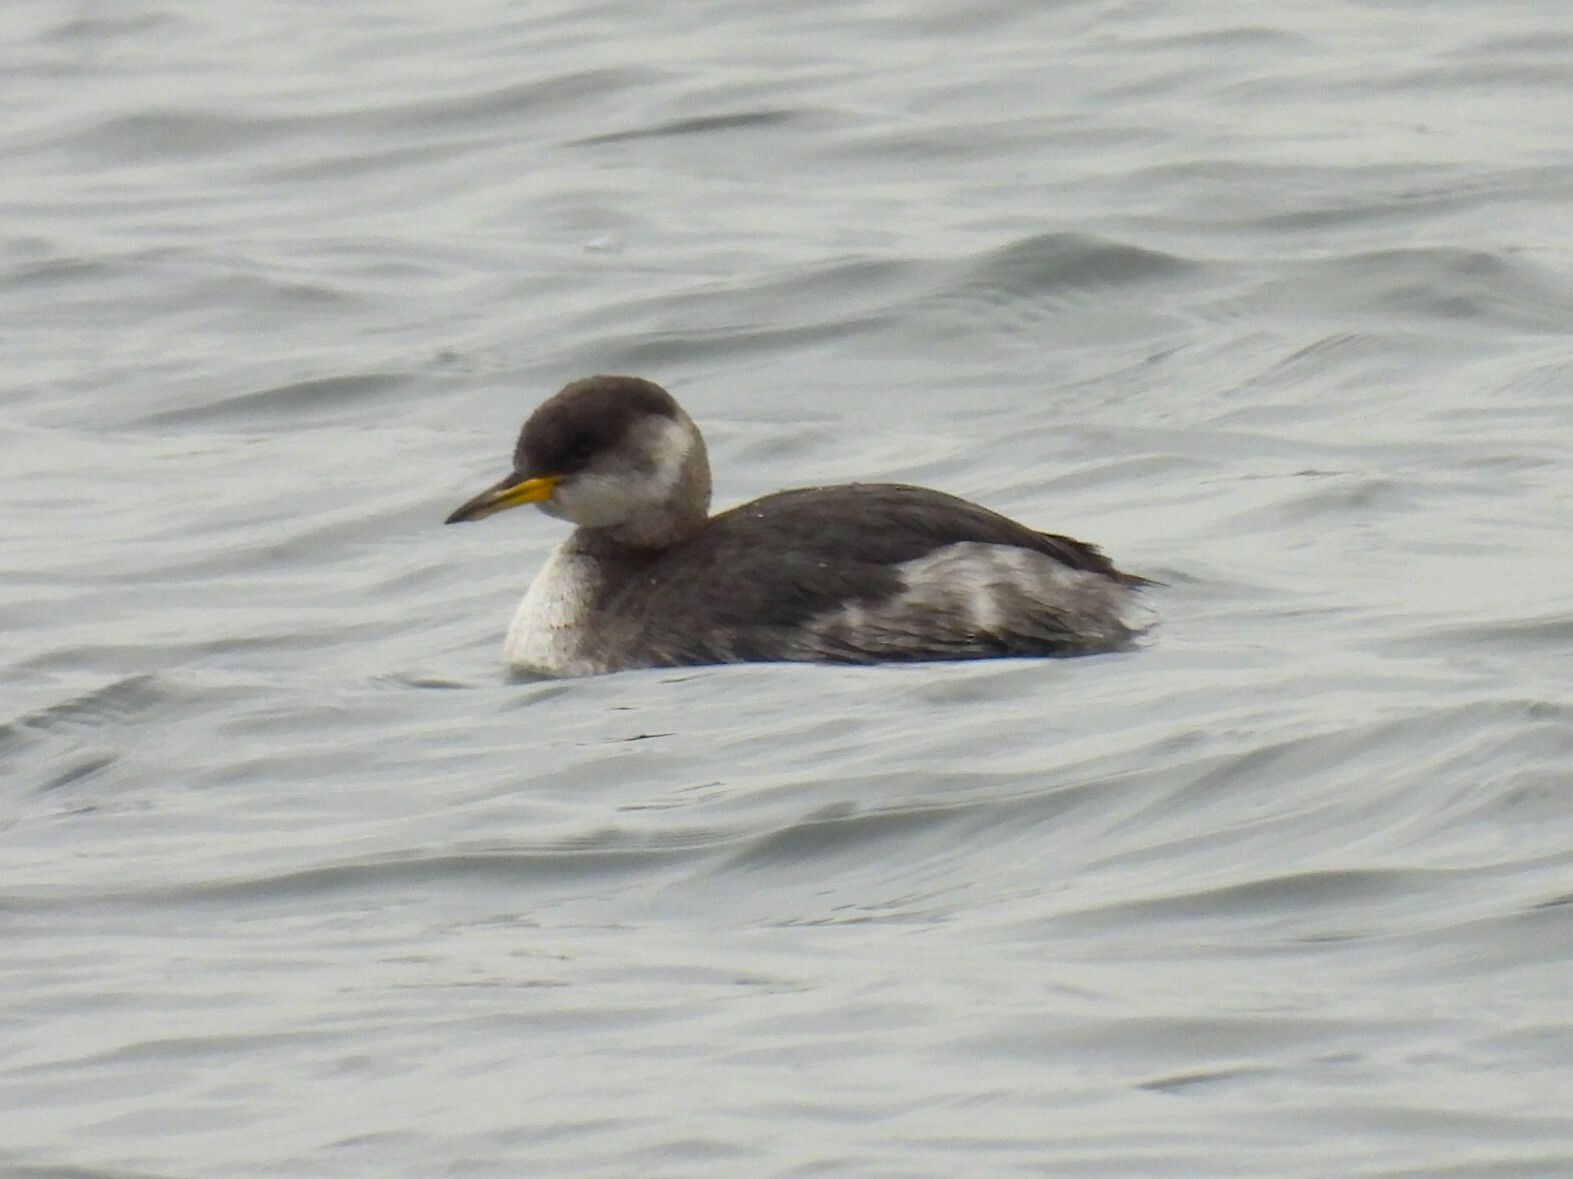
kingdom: Animalia
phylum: Chordata
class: Aves
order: Podicipediformes
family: Podicipedidae
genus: Podiceps
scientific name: Podiceps grisegena
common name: Red-necked grebe
